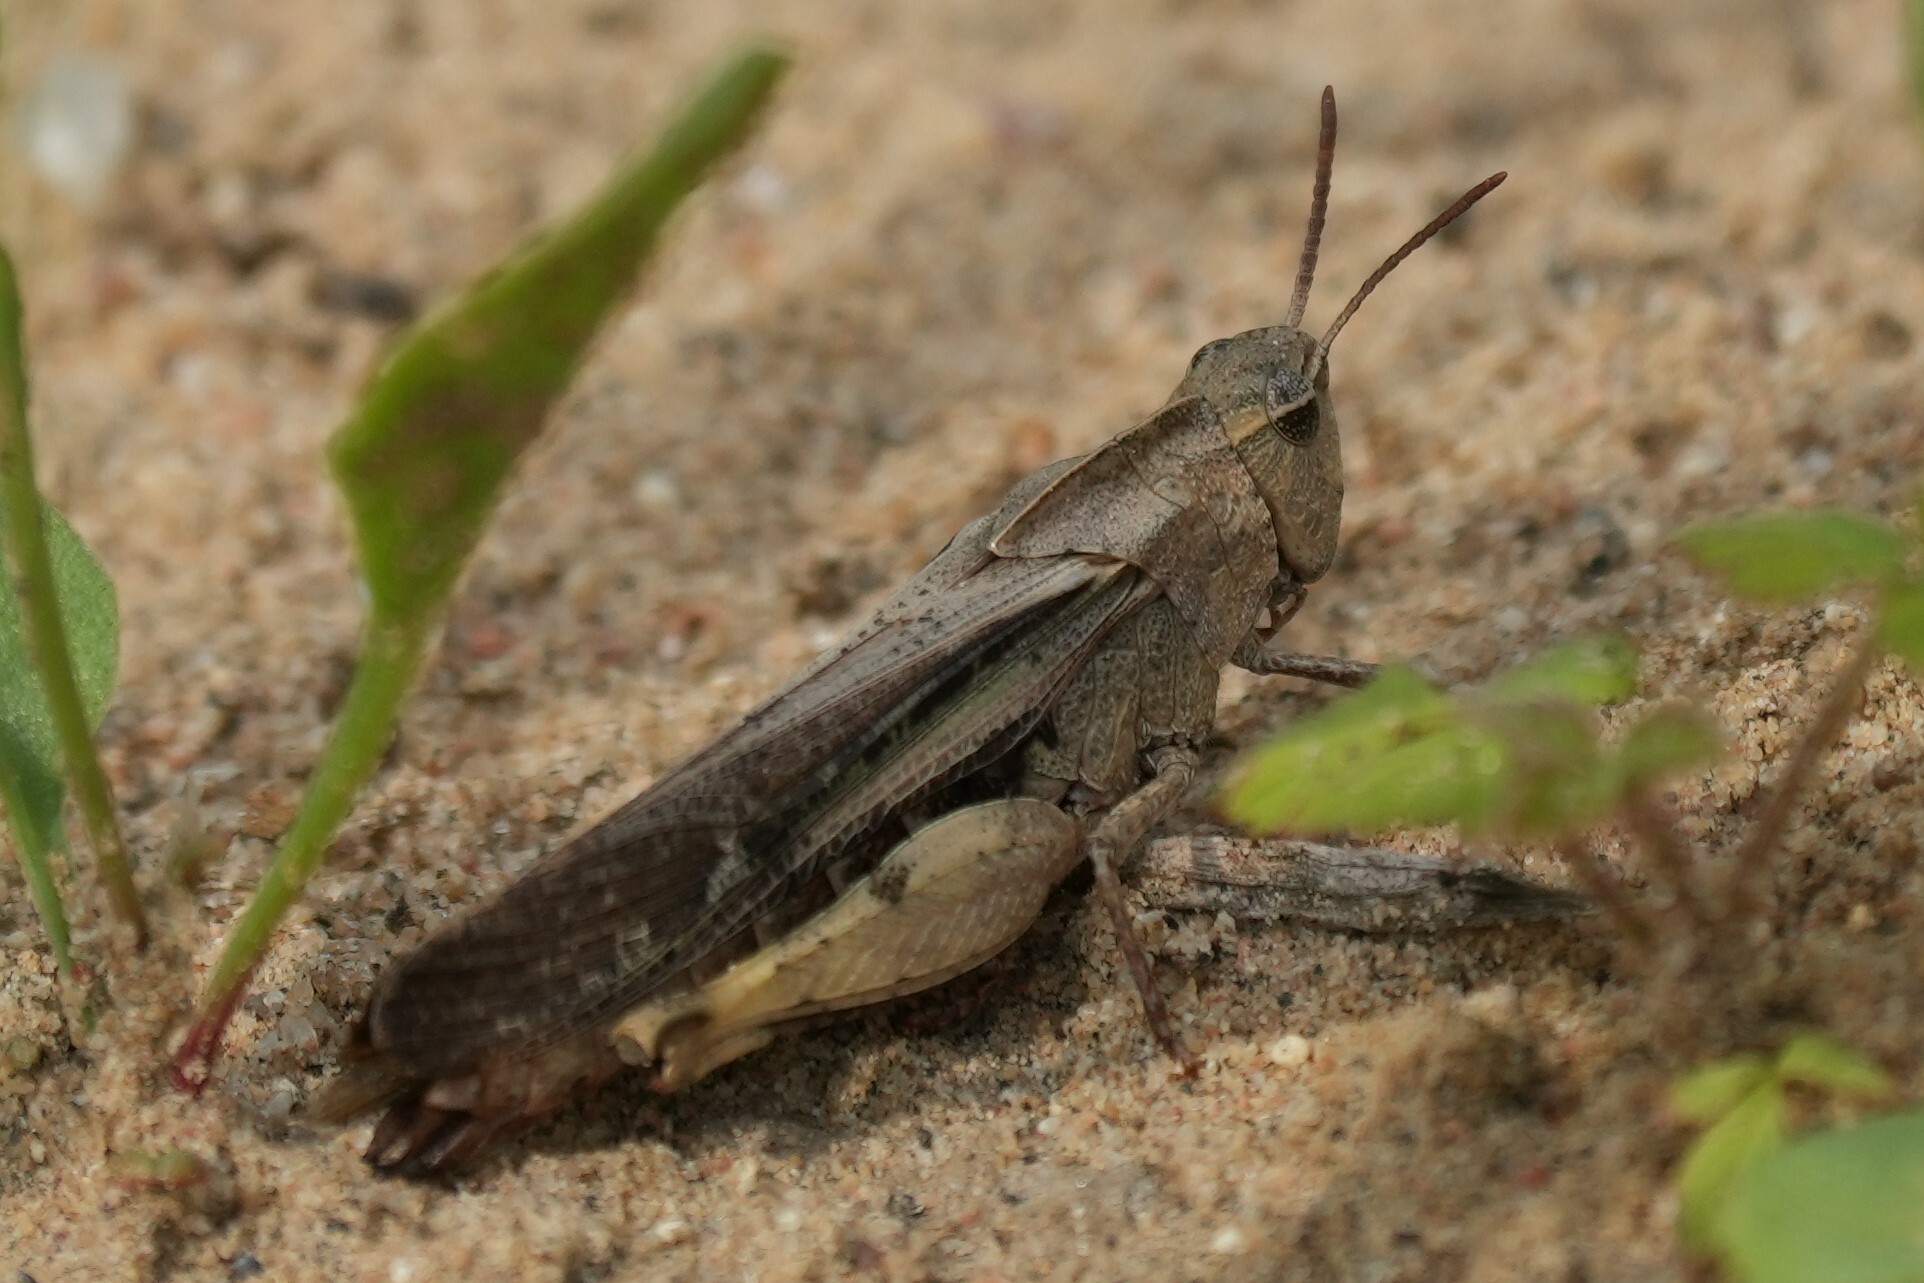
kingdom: Animalia
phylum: Arthropoda
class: Insecta
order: Orthoptera
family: Acrididae
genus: Chortophaga
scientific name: Chortophaga viridifasciata
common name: Green-striped grasshopper
